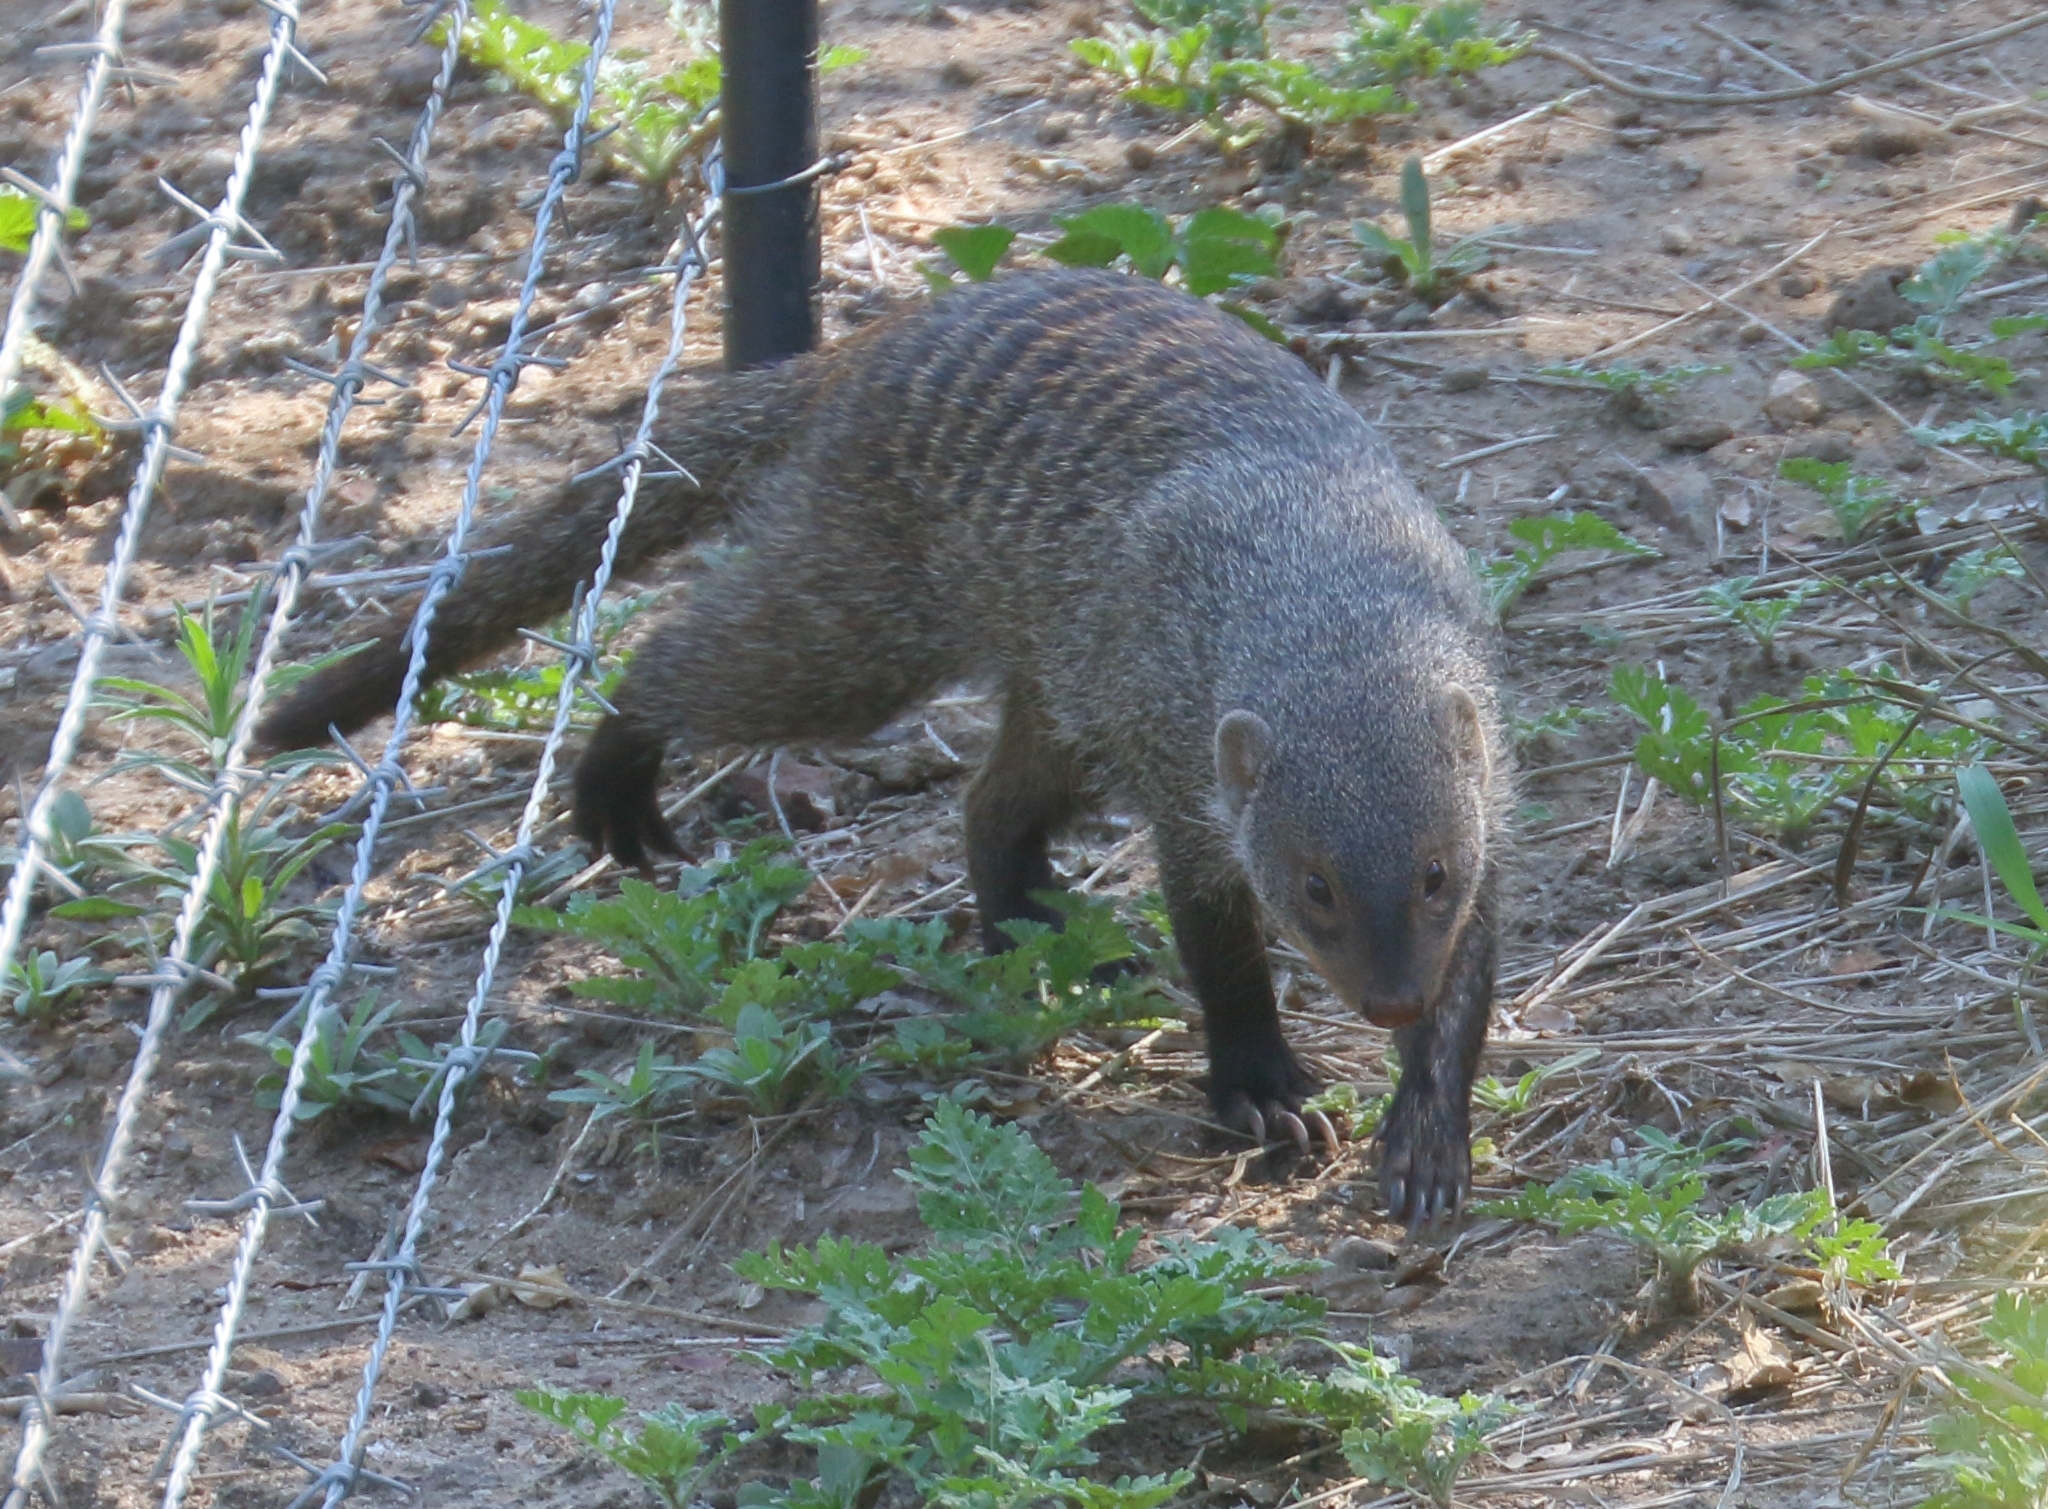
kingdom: Animalia
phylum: Chordata
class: Mammalia
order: Carnivora
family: Herpestidae
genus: Mungos
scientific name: Mungos mungo
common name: Banded mongoose
